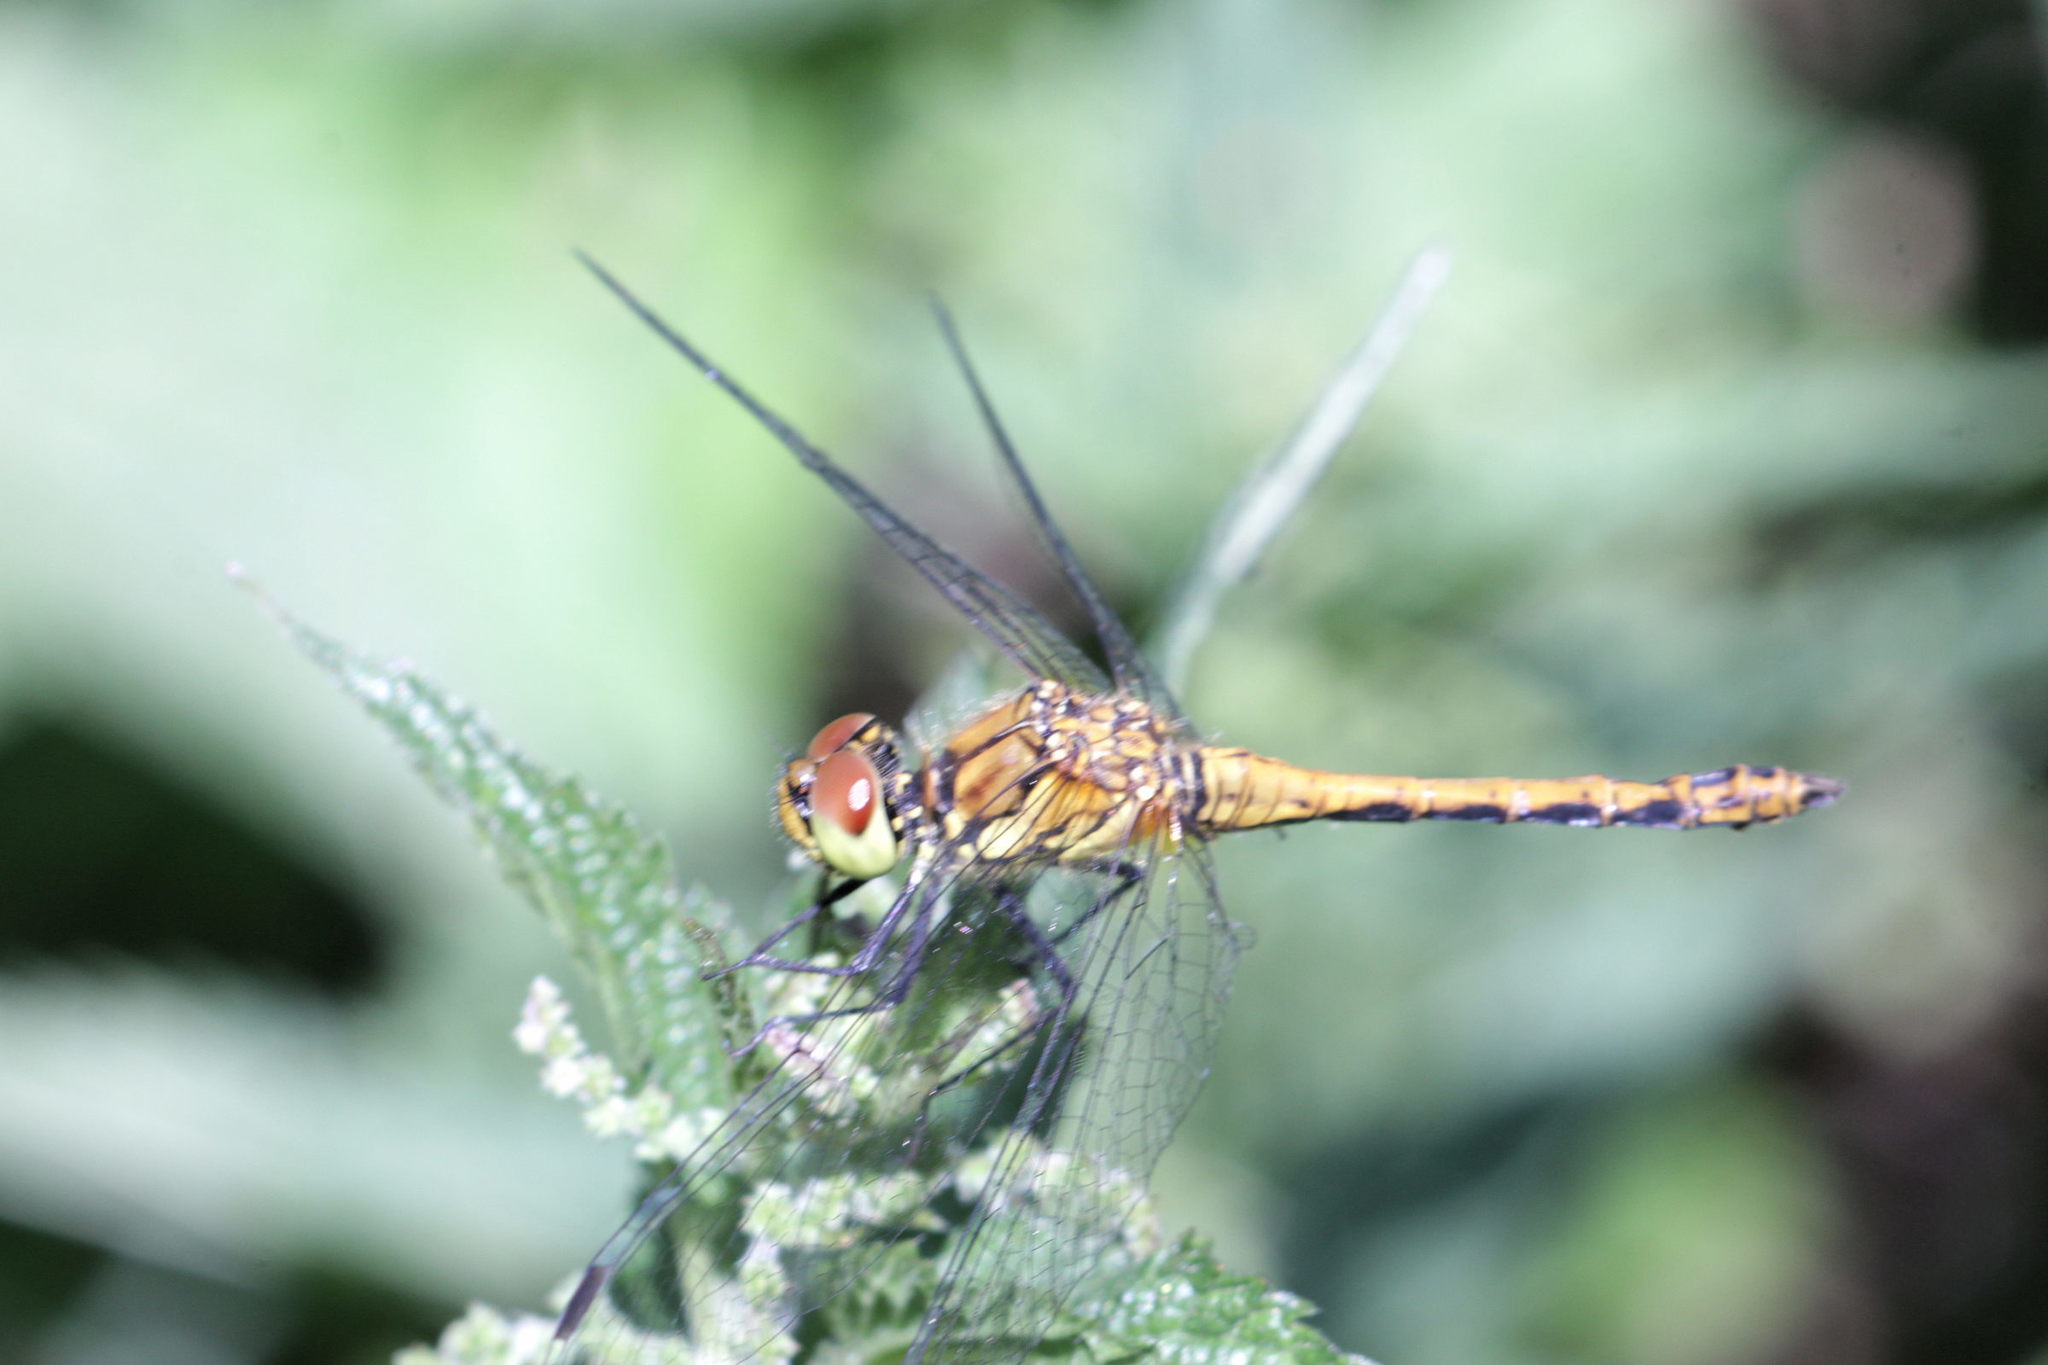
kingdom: Animalia
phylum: Arthropoda
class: Insecta
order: Odonata
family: Libellulidae
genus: Sympetrum
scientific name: Sympetrum sanguineum
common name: Ruddy darter
